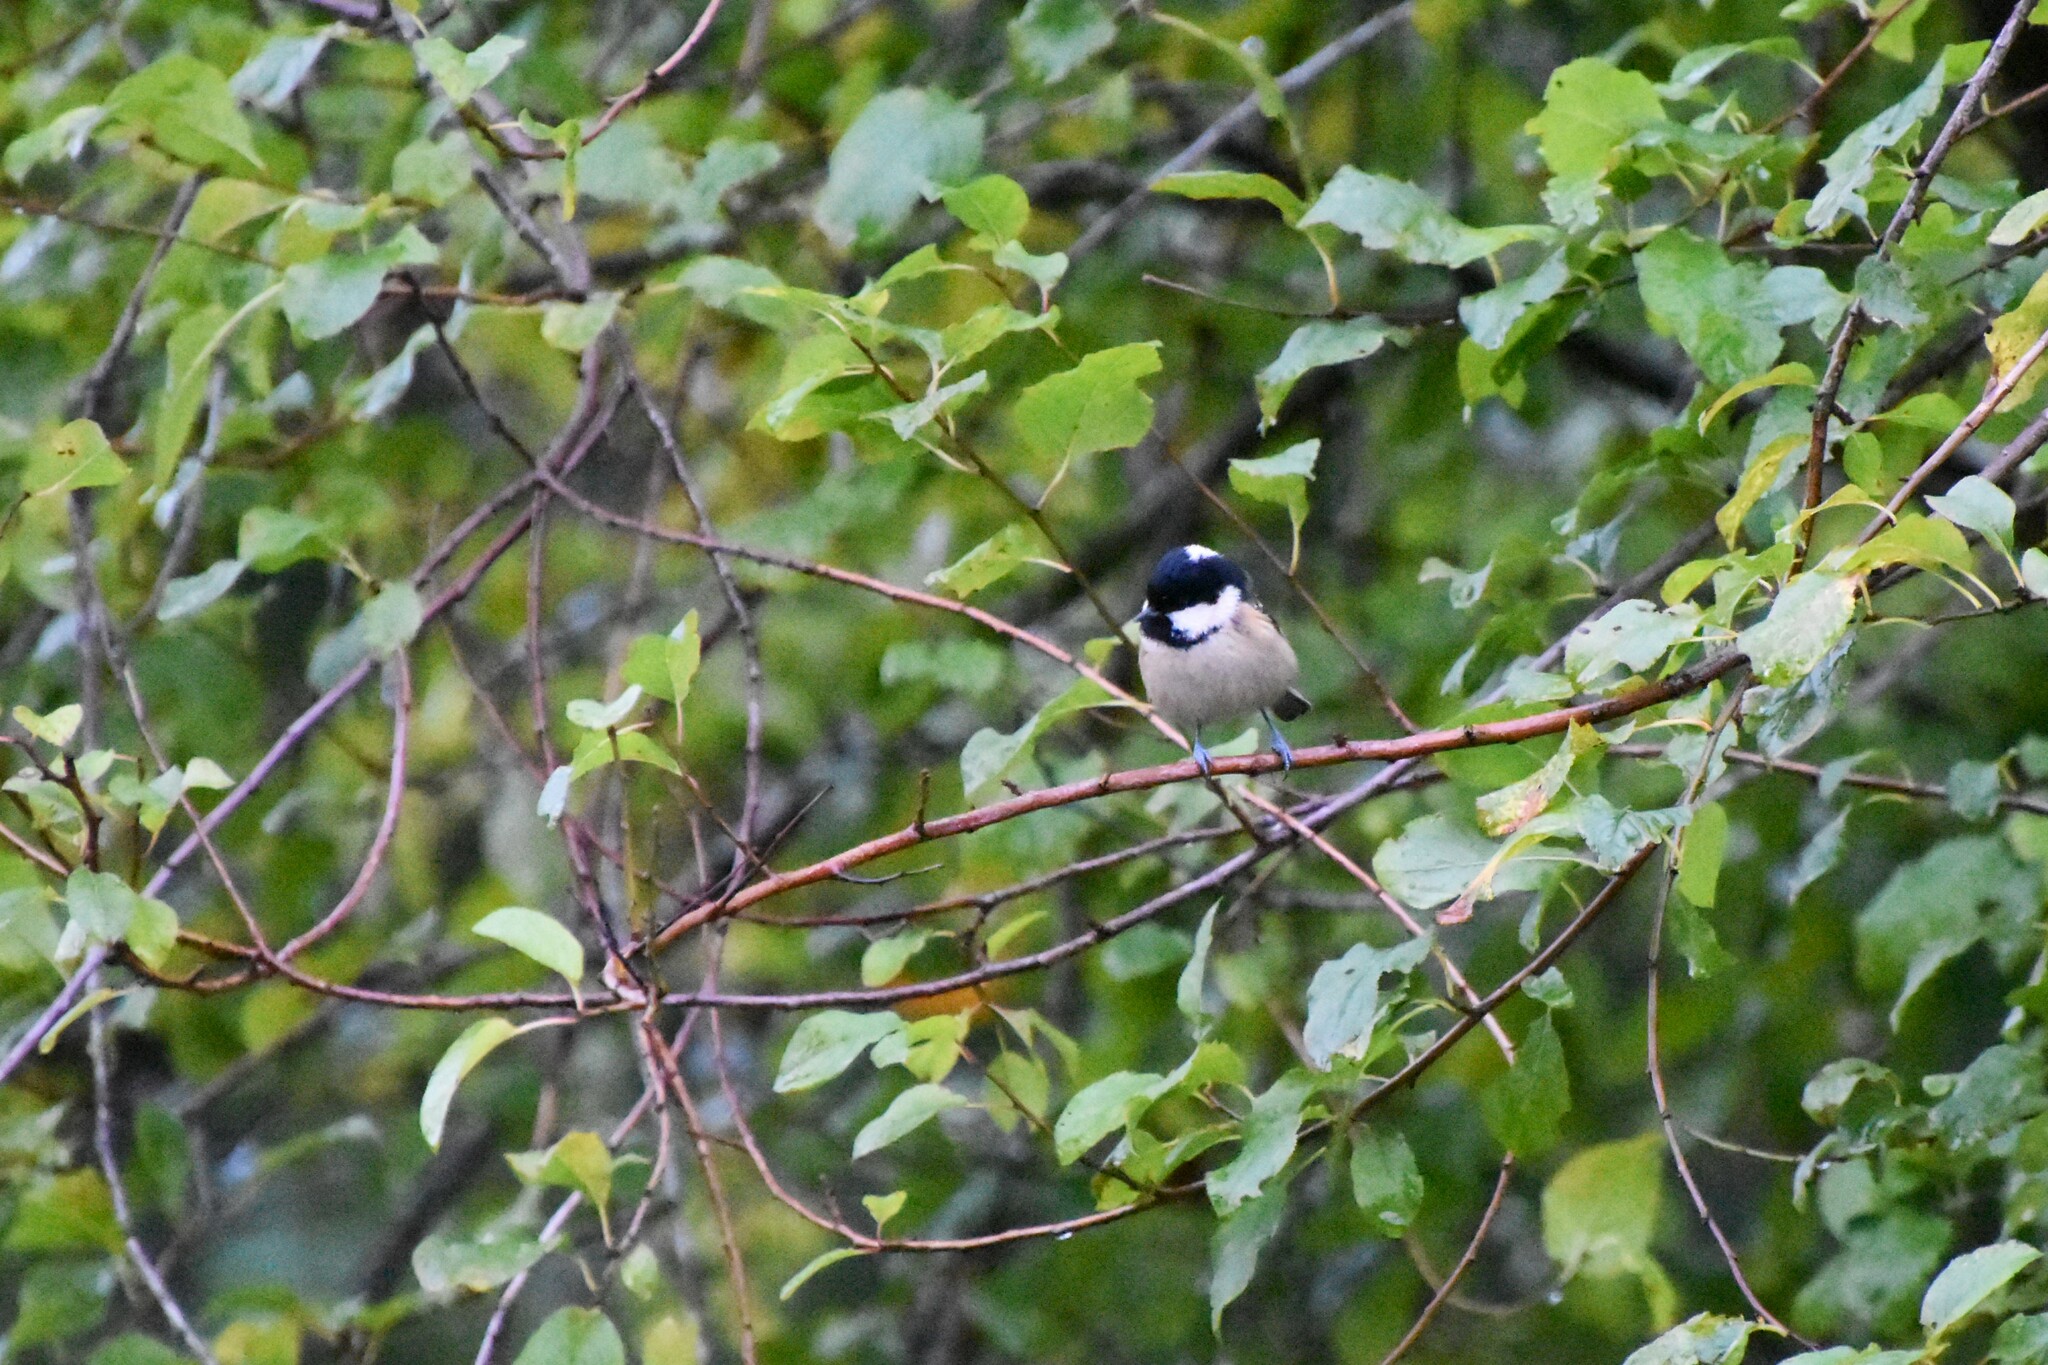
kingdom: Animalia
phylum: Chordata
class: Aves
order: Passeriformes
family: Paridae
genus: Periparus
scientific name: Periparus ater
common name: Coal tit
